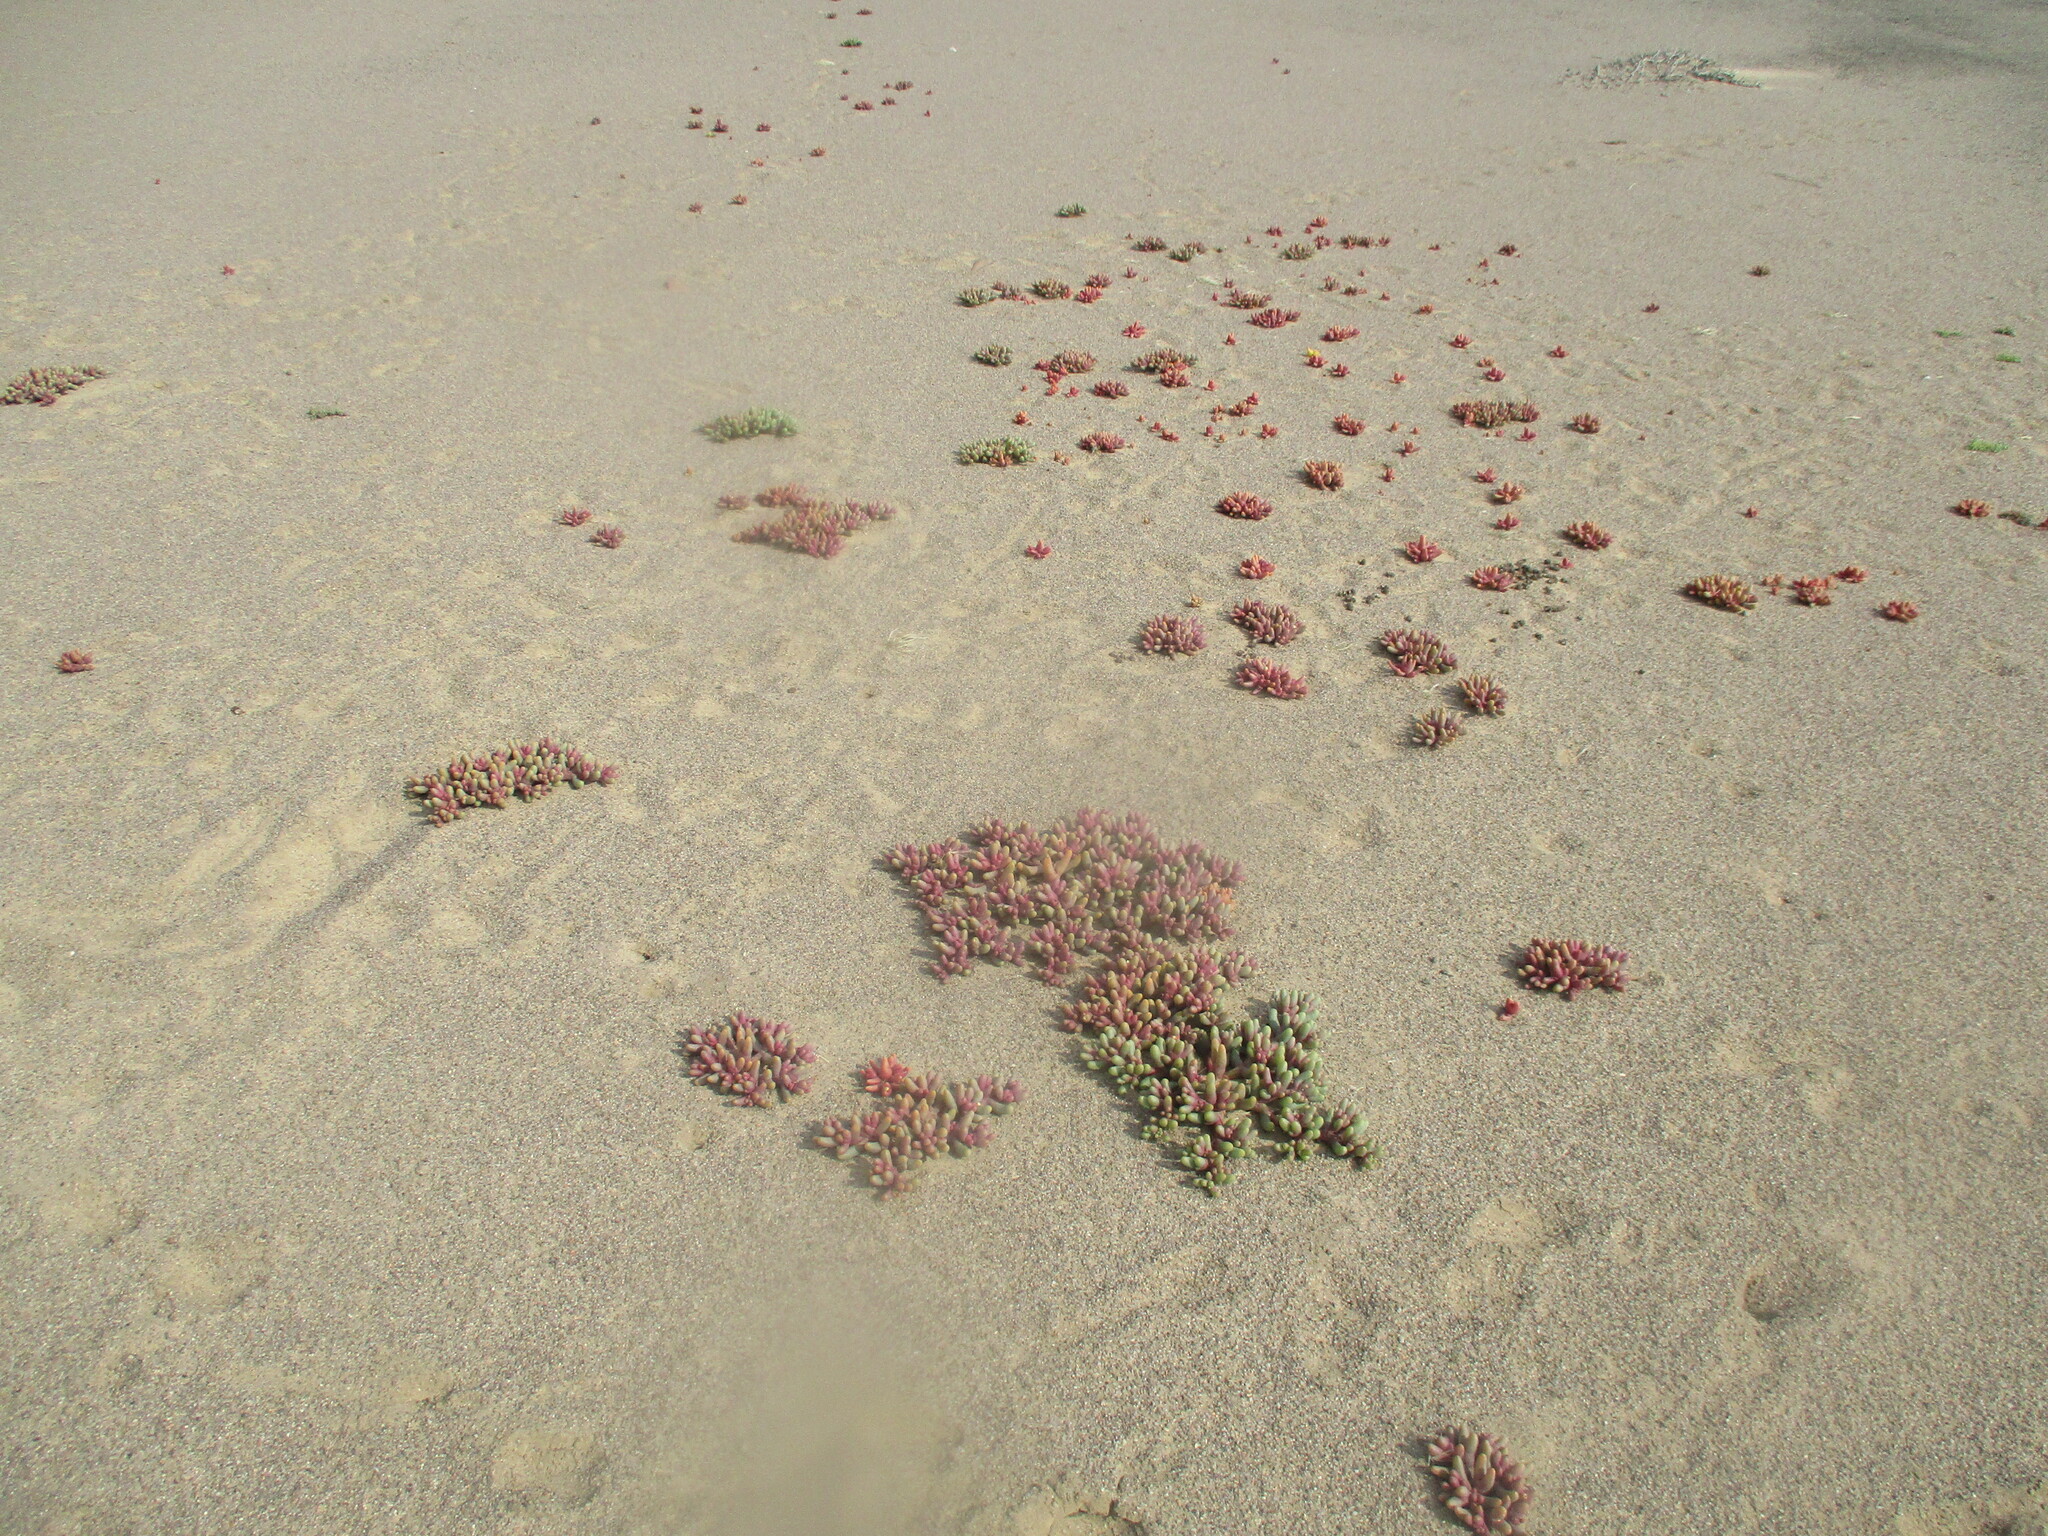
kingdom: Plantae
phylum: Tracheophyta
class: Magnoliopsida
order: Caryophyllales
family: Aizoaceae
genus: Mesembryanthemum
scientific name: Mesembryanthemum cryptanthum
